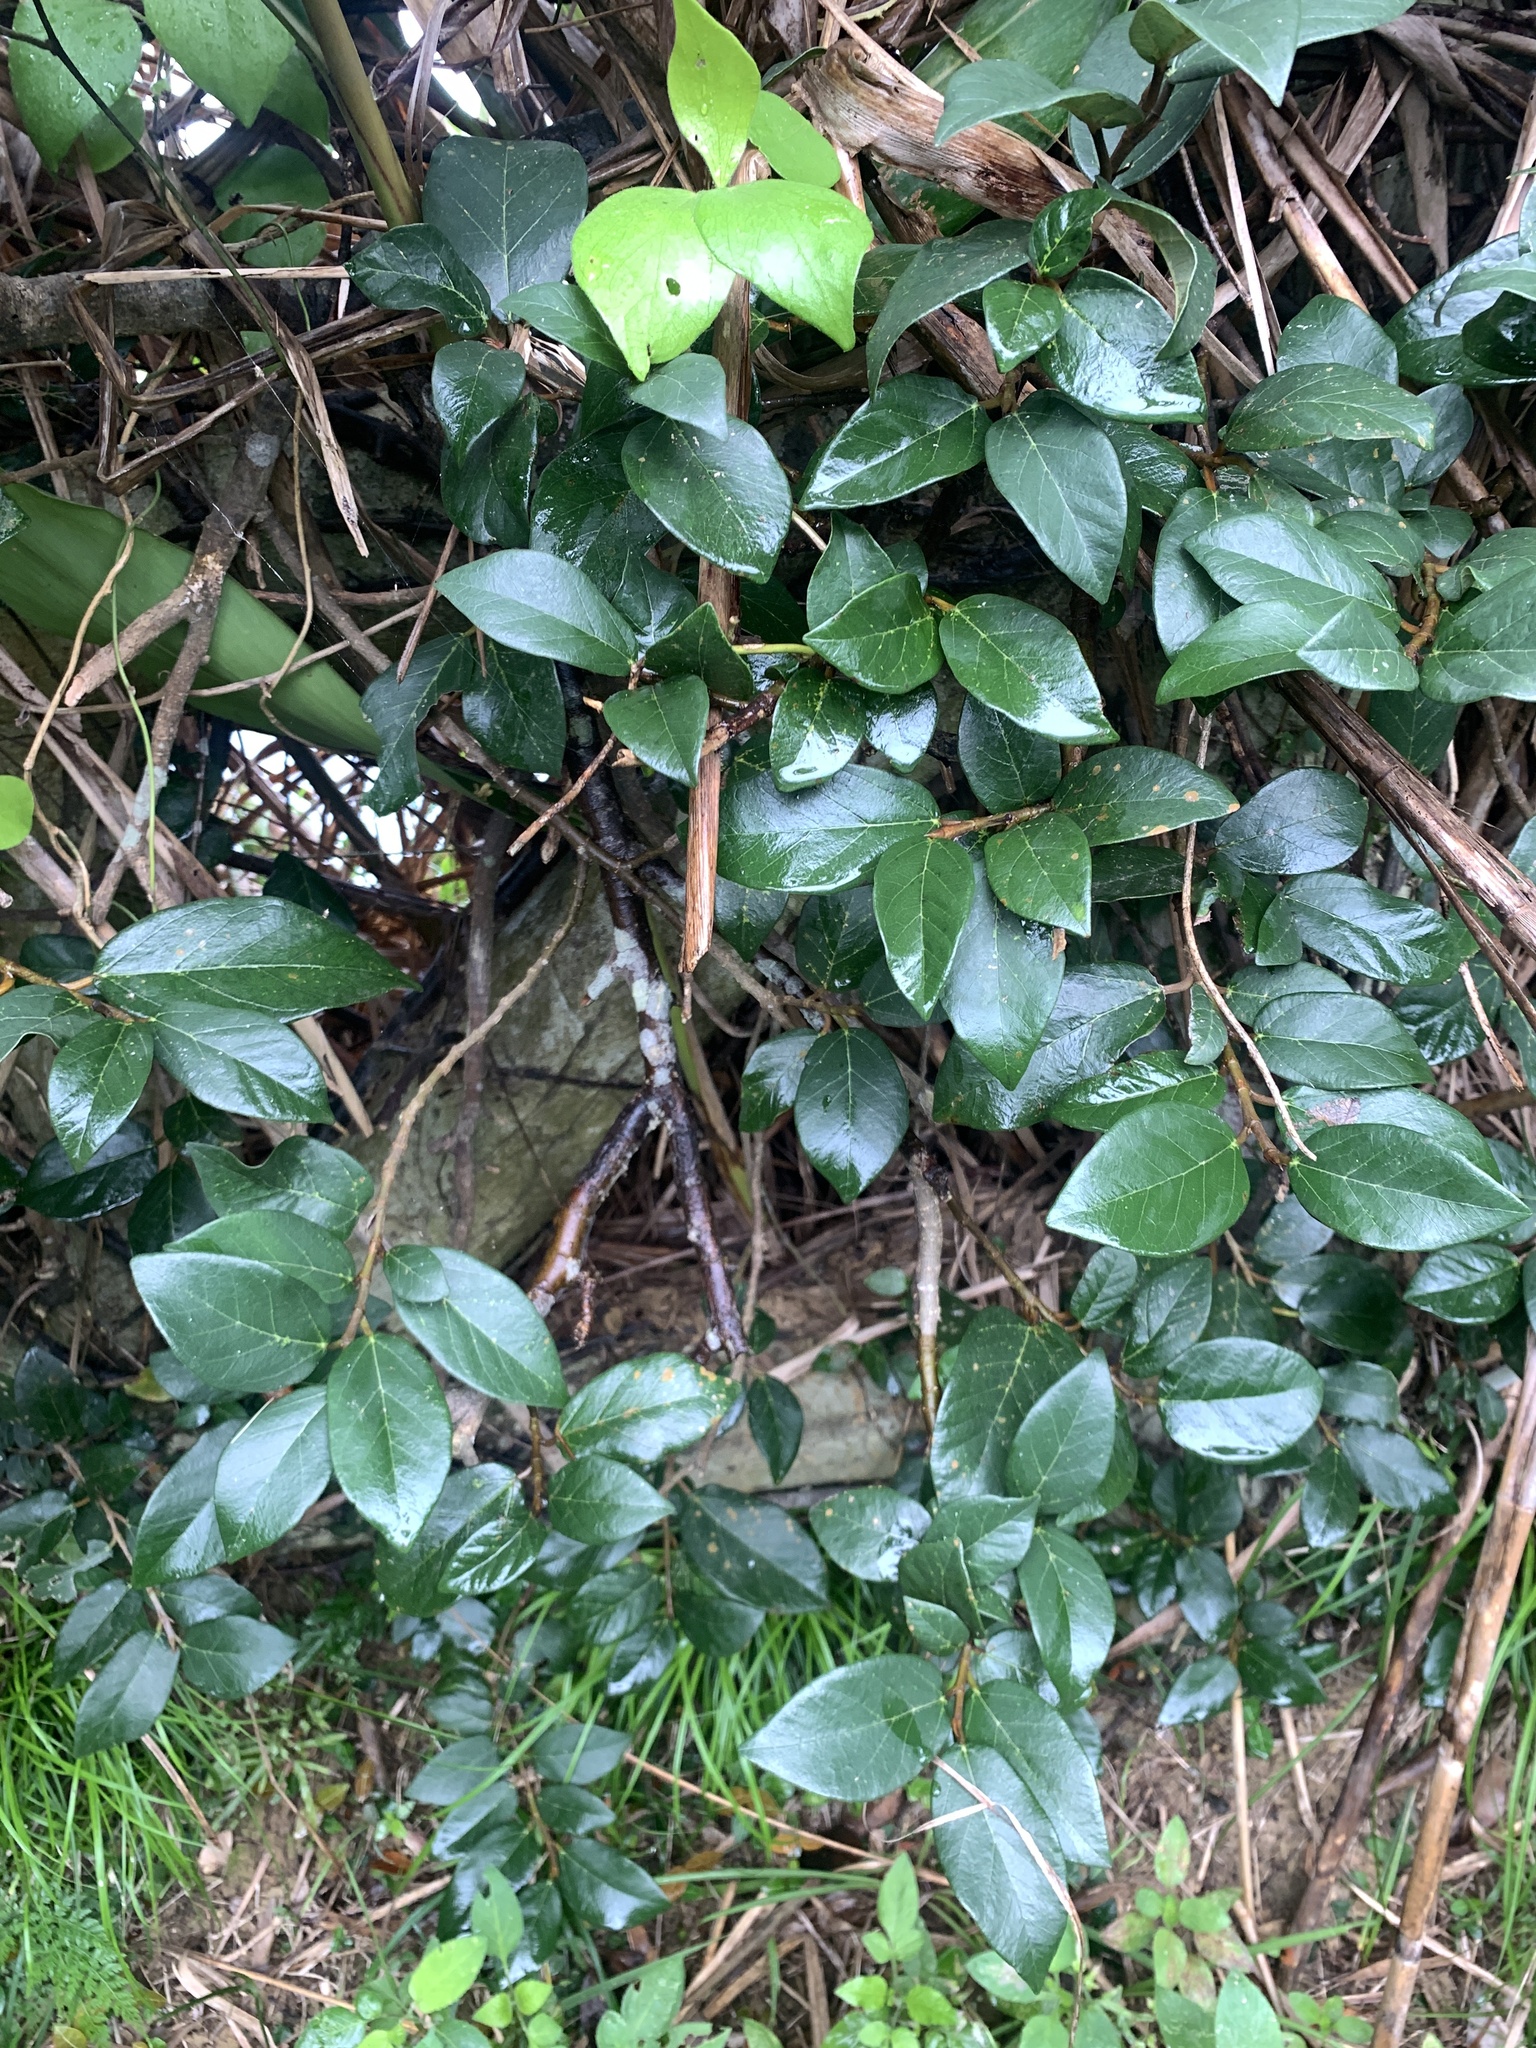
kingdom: Plantae
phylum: Tracheophyta
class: Magnoliopsida
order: Rosales
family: Moraceae
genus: Ficus
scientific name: Ficus pumila
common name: Climbingfig
